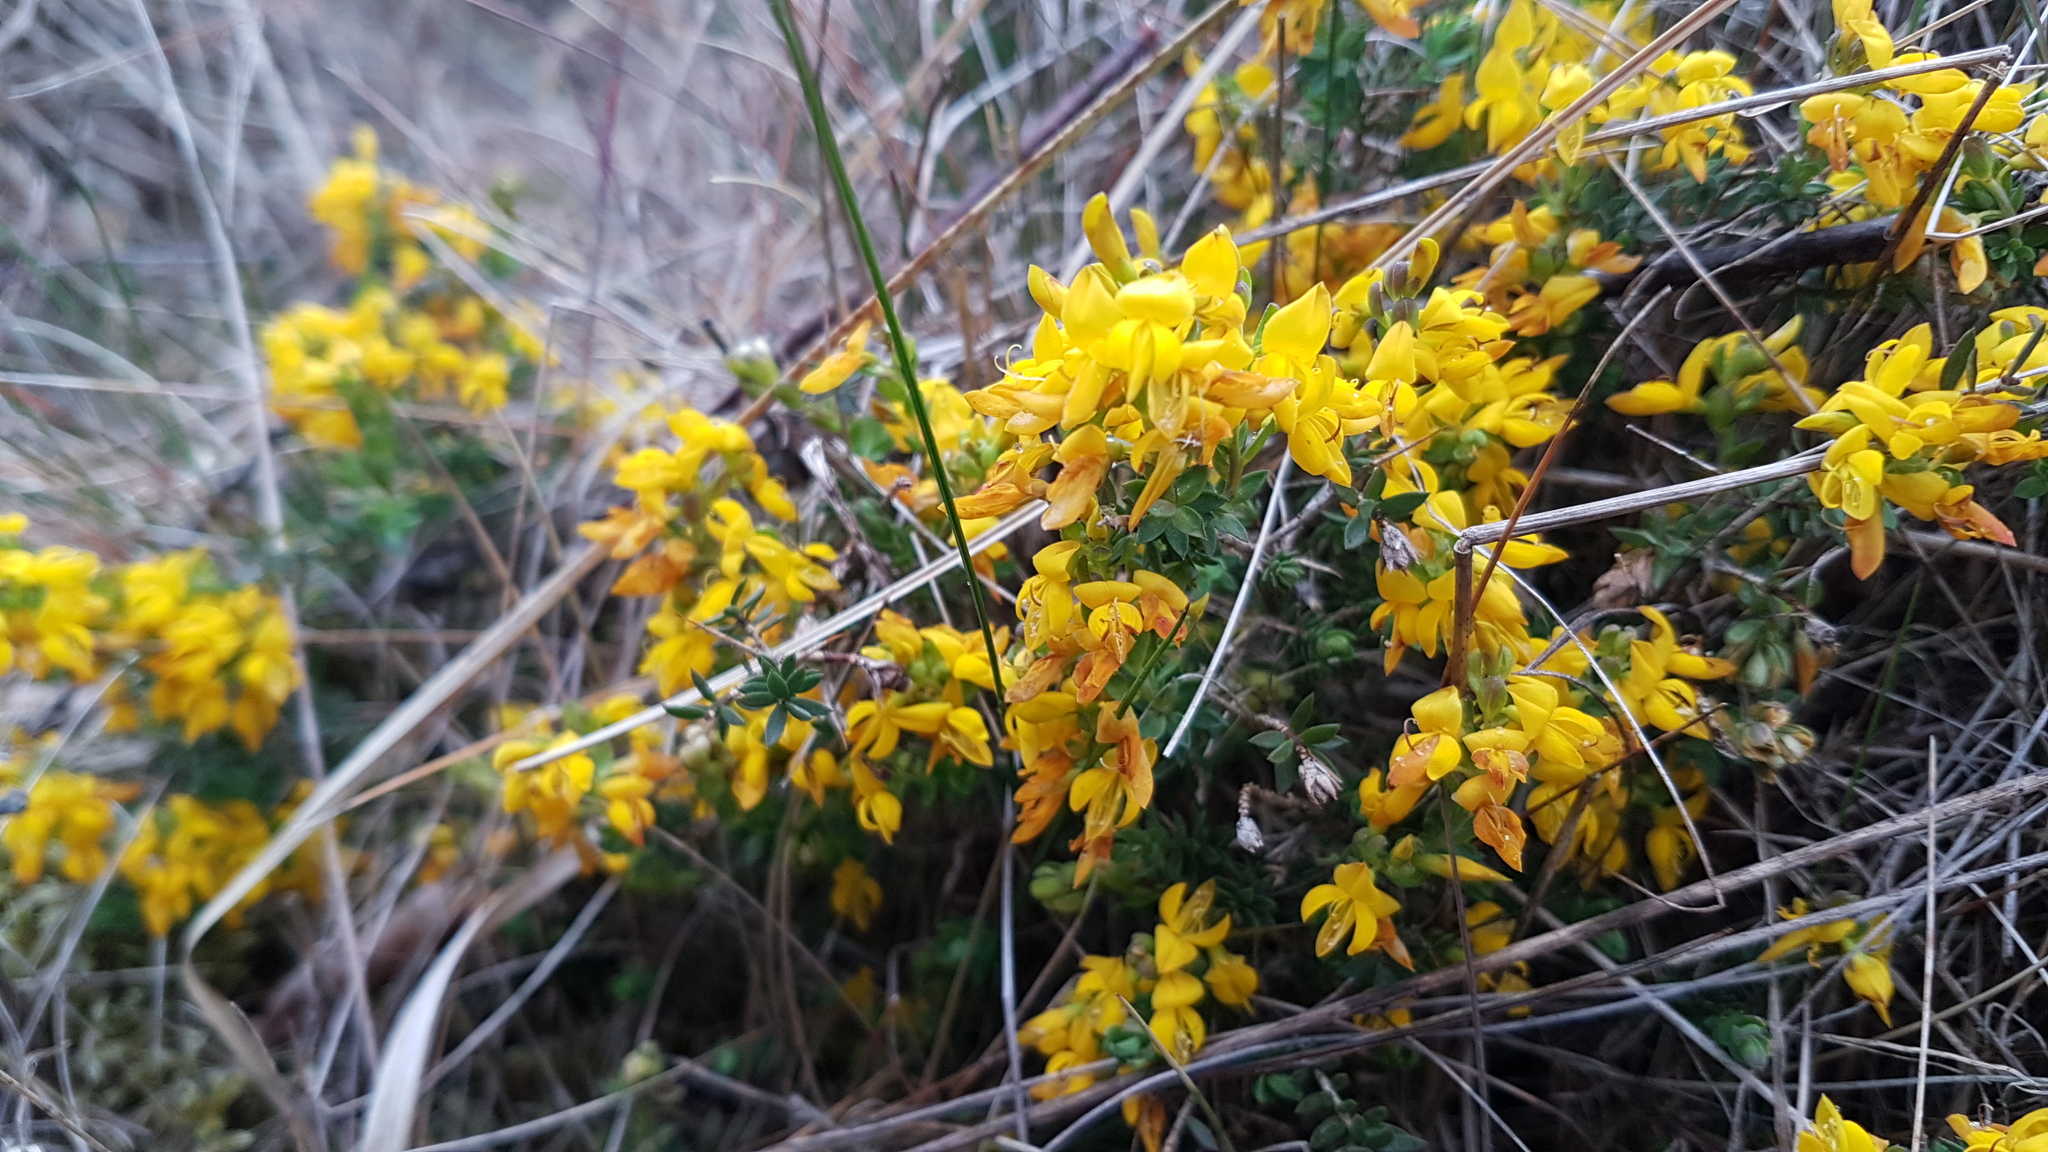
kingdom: Plantae
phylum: Tracheophyta
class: Magnoliopsida
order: Fabales
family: Fabaceae
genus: Genista
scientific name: Genista anglica
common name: Petty whin
